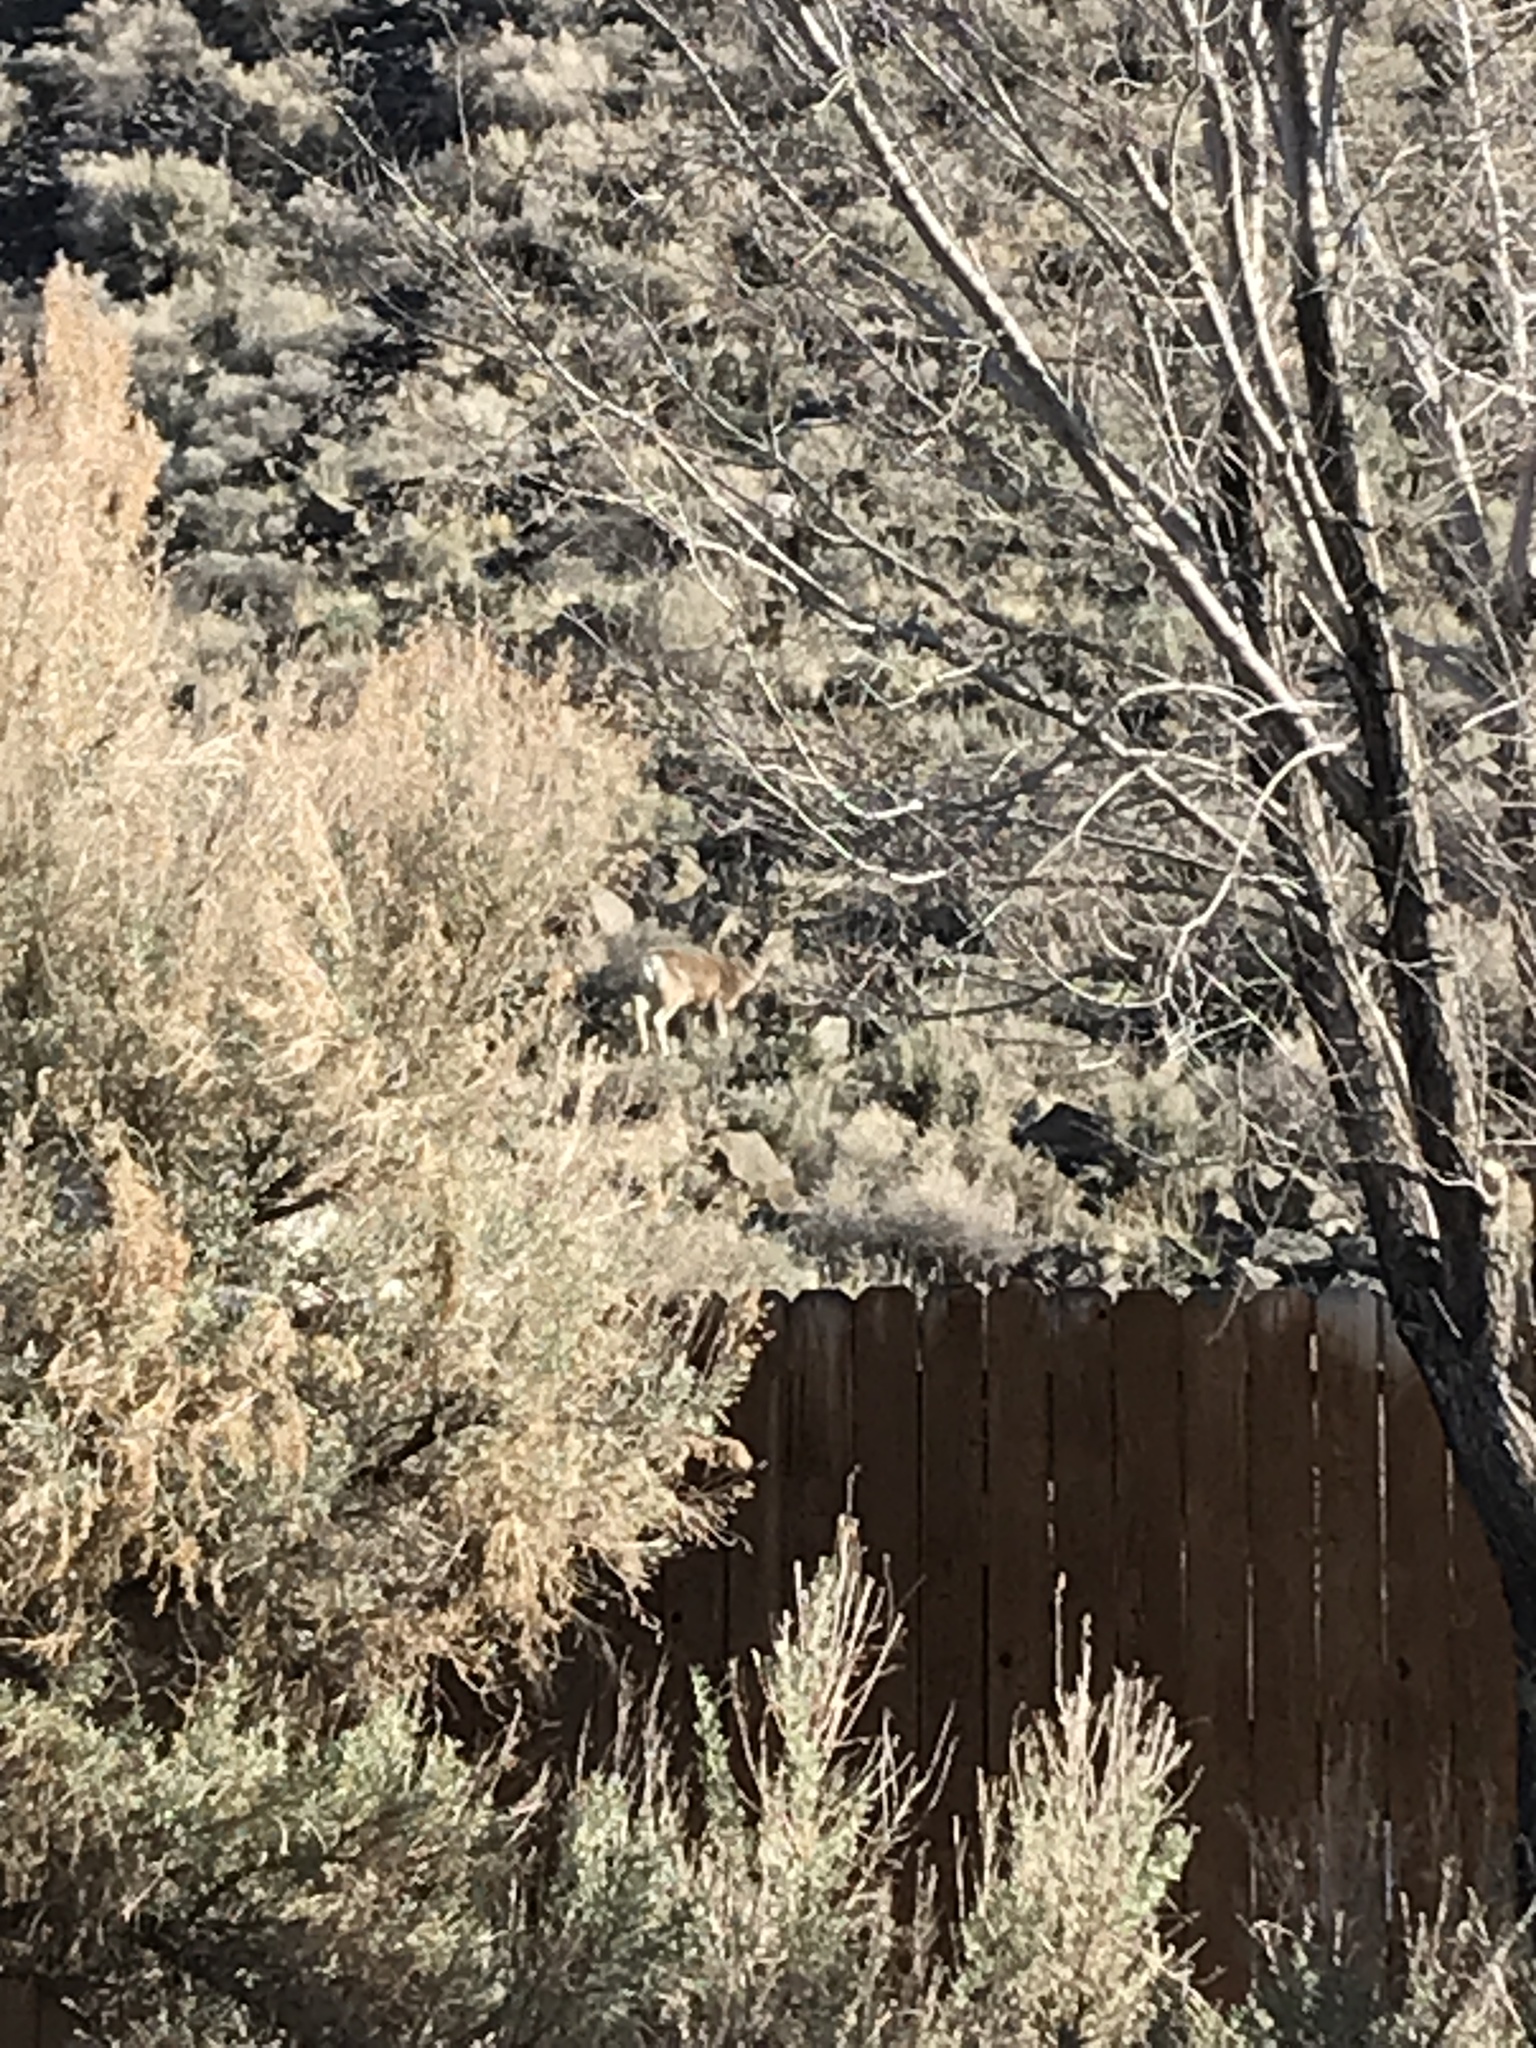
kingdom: Animalia
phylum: Chordata
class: Mammalia
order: Artiodactyla
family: Cervidae
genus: Odocoileus
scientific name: Odocoileus hemionus
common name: Mule deer
